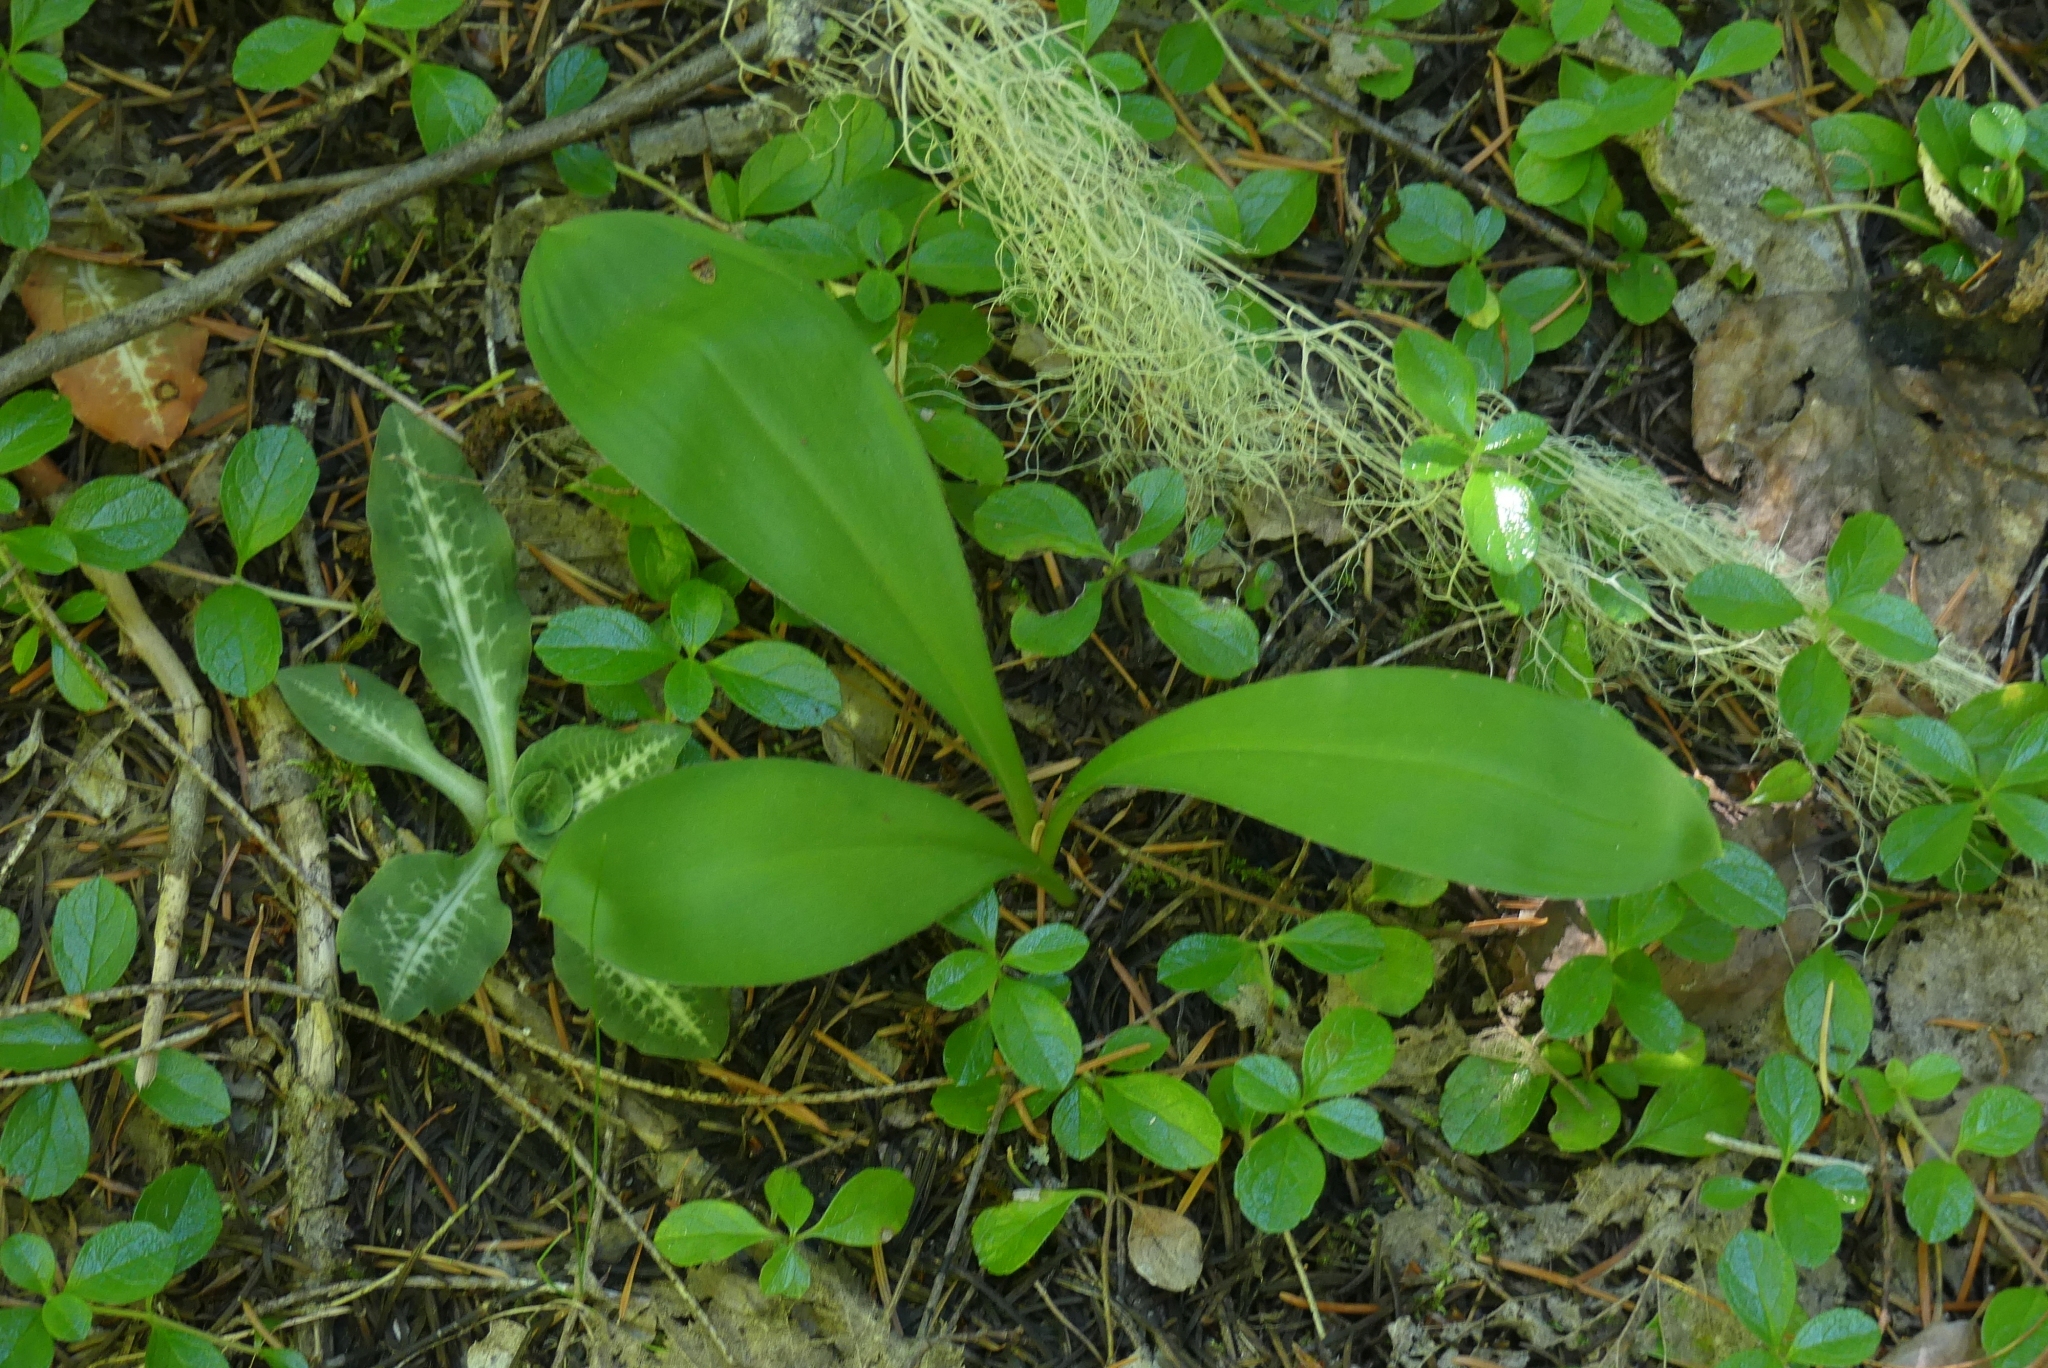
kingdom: Plantae
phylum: Tracheophyta
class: Liliopsida
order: Liliales
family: Liliaceae
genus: Clintonia
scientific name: Clintonia uniflora
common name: Queen's cup
